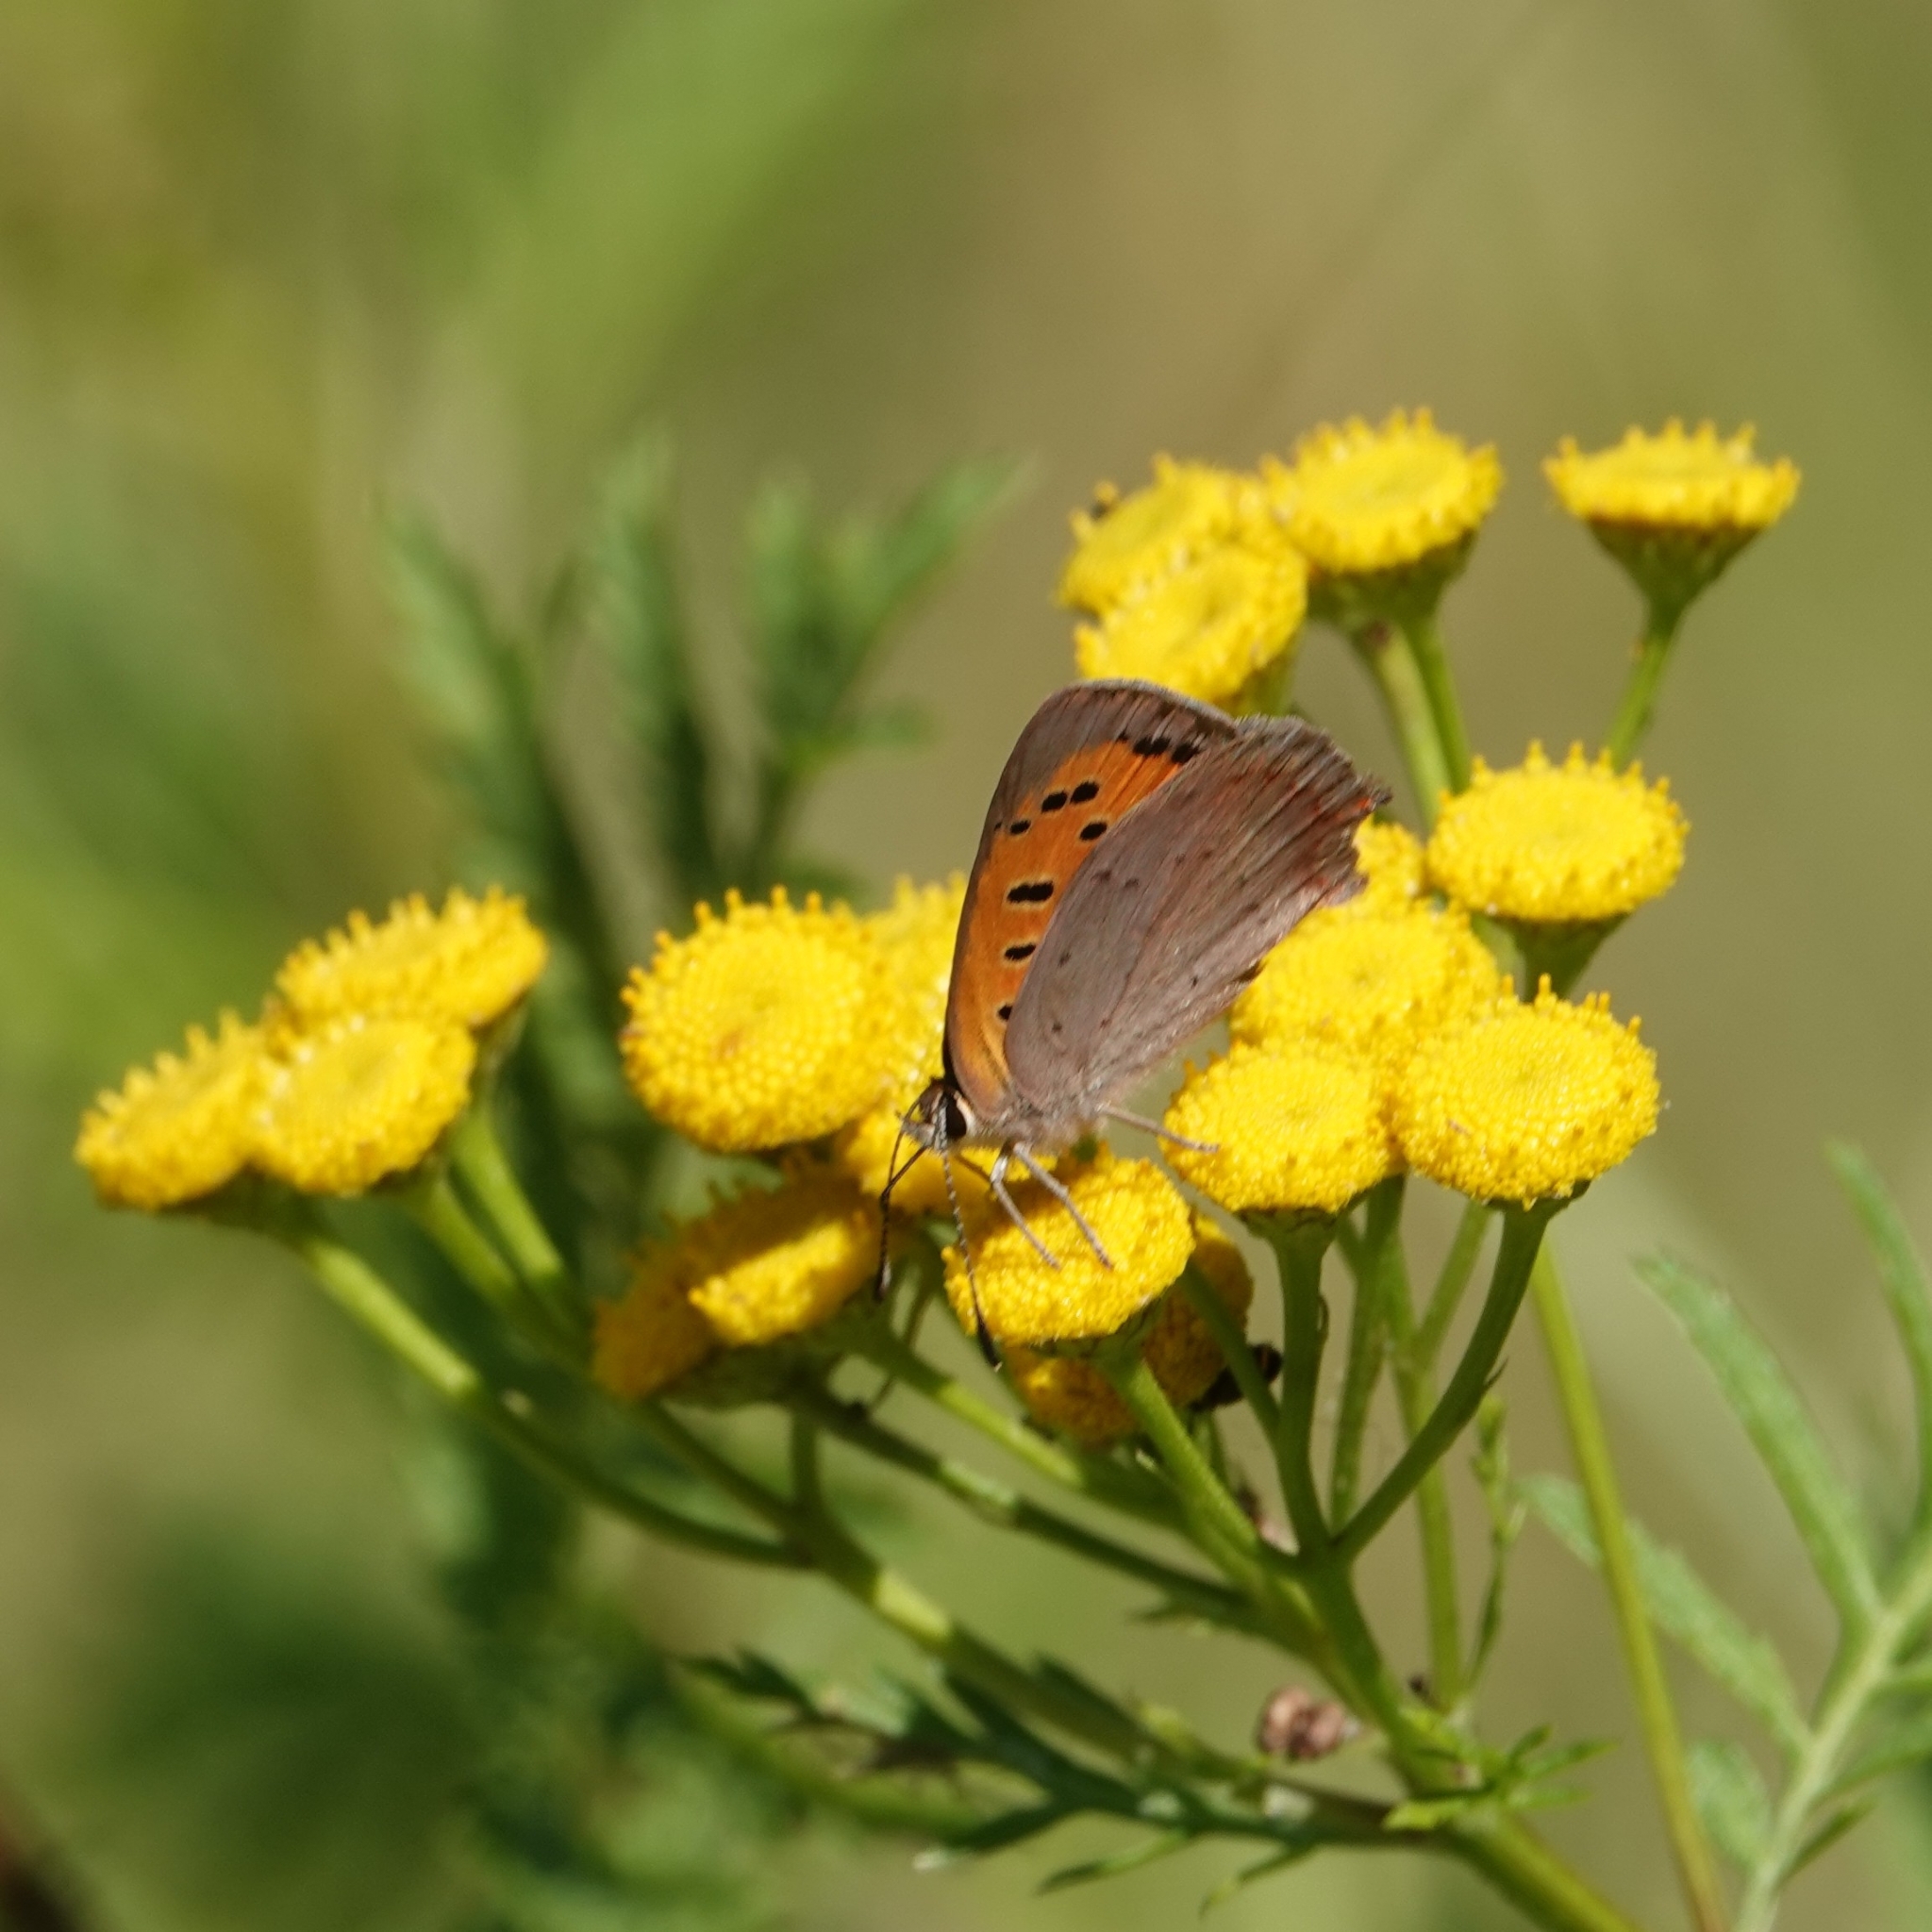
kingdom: Animalia
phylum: Arthropoda
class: Insecta
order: Lepidoptera
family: Lycaenidae
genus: Lycaena
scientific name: Lycaena phlaeas
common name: Small copper
